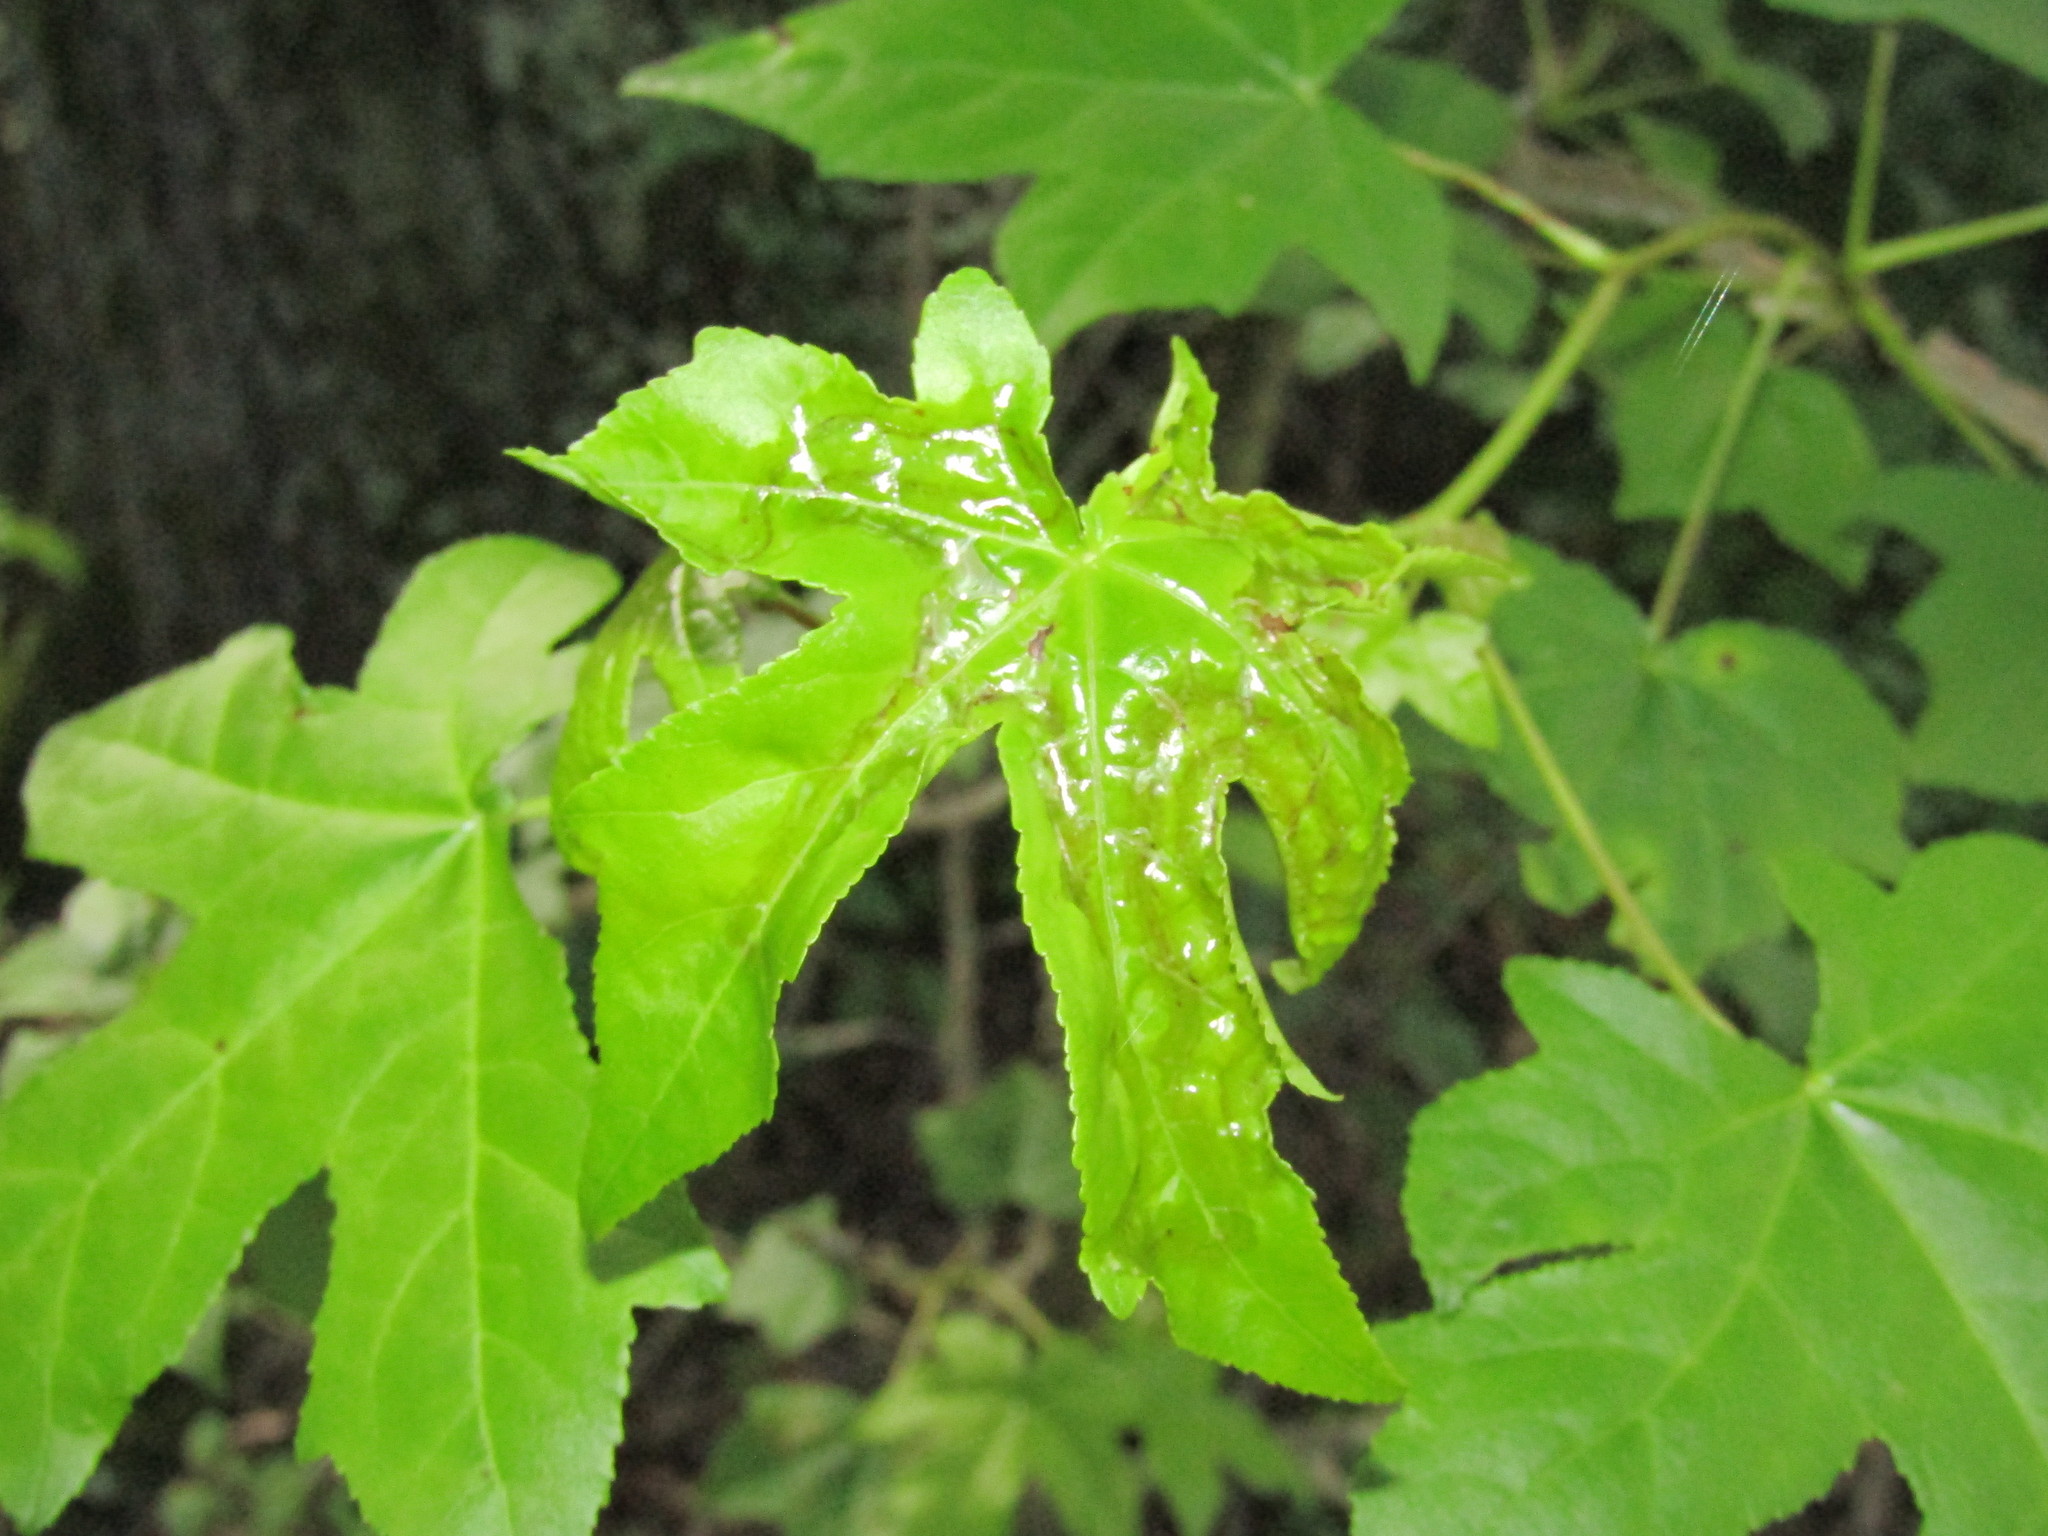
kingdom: Animalia
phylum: Arthropoda
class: Insecta
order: Lepidoptera
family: Gracillariidae
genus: Phyllocnistis
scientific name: Phyllocnistis liquidambarisella
